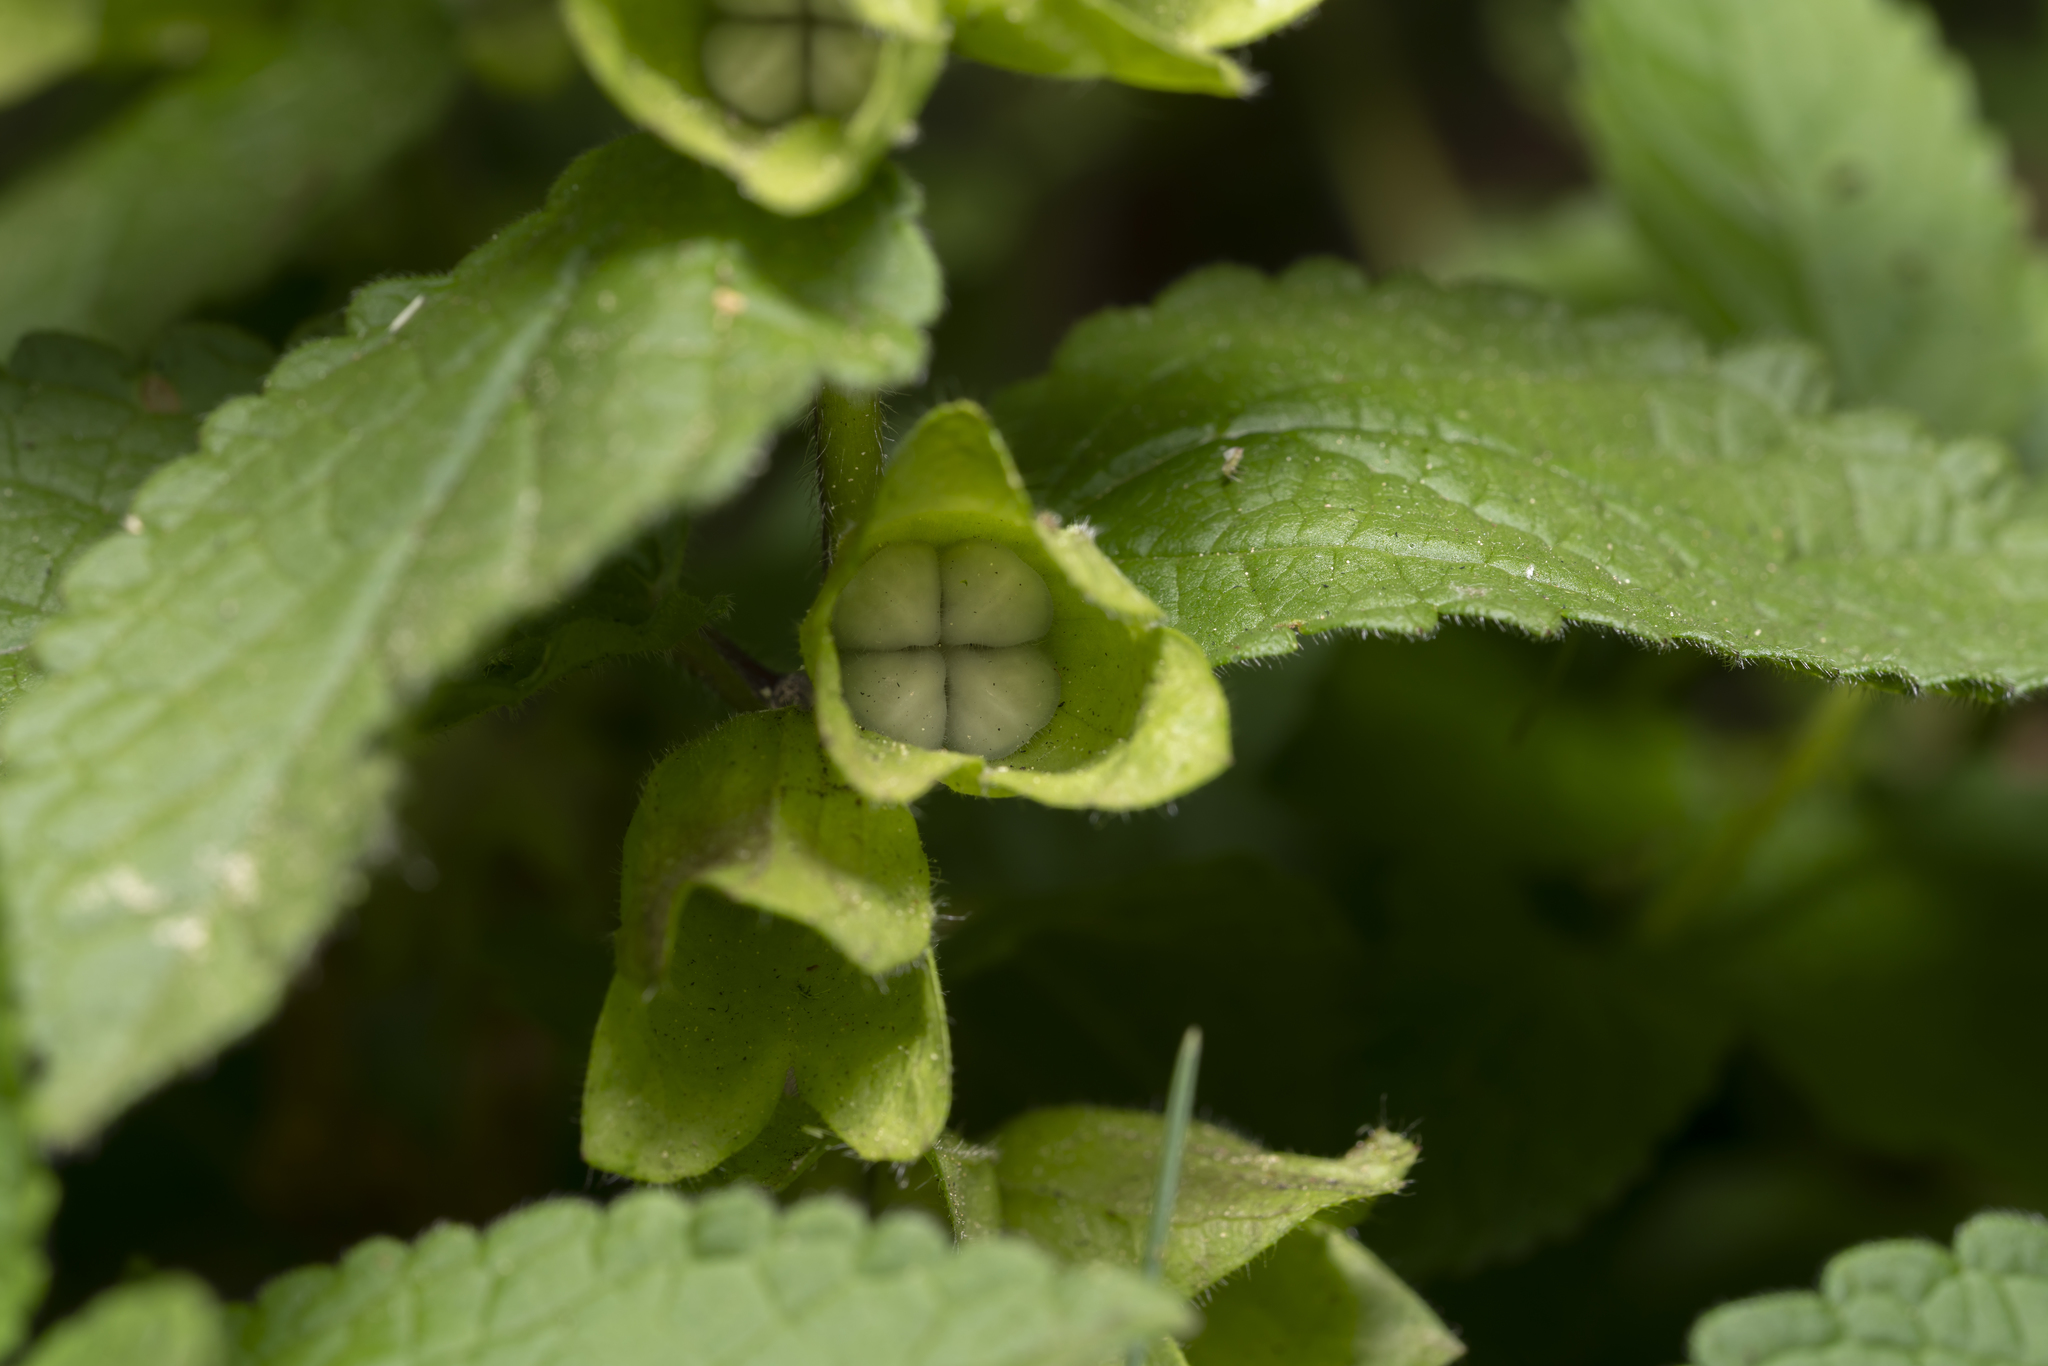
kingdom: Plantae
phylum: Tracheophyta
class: Magnoliopsida
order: Lamiales
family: Lamiaceae
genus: Melittis
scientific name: Melittis melissophyllum
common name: Bastard balm
